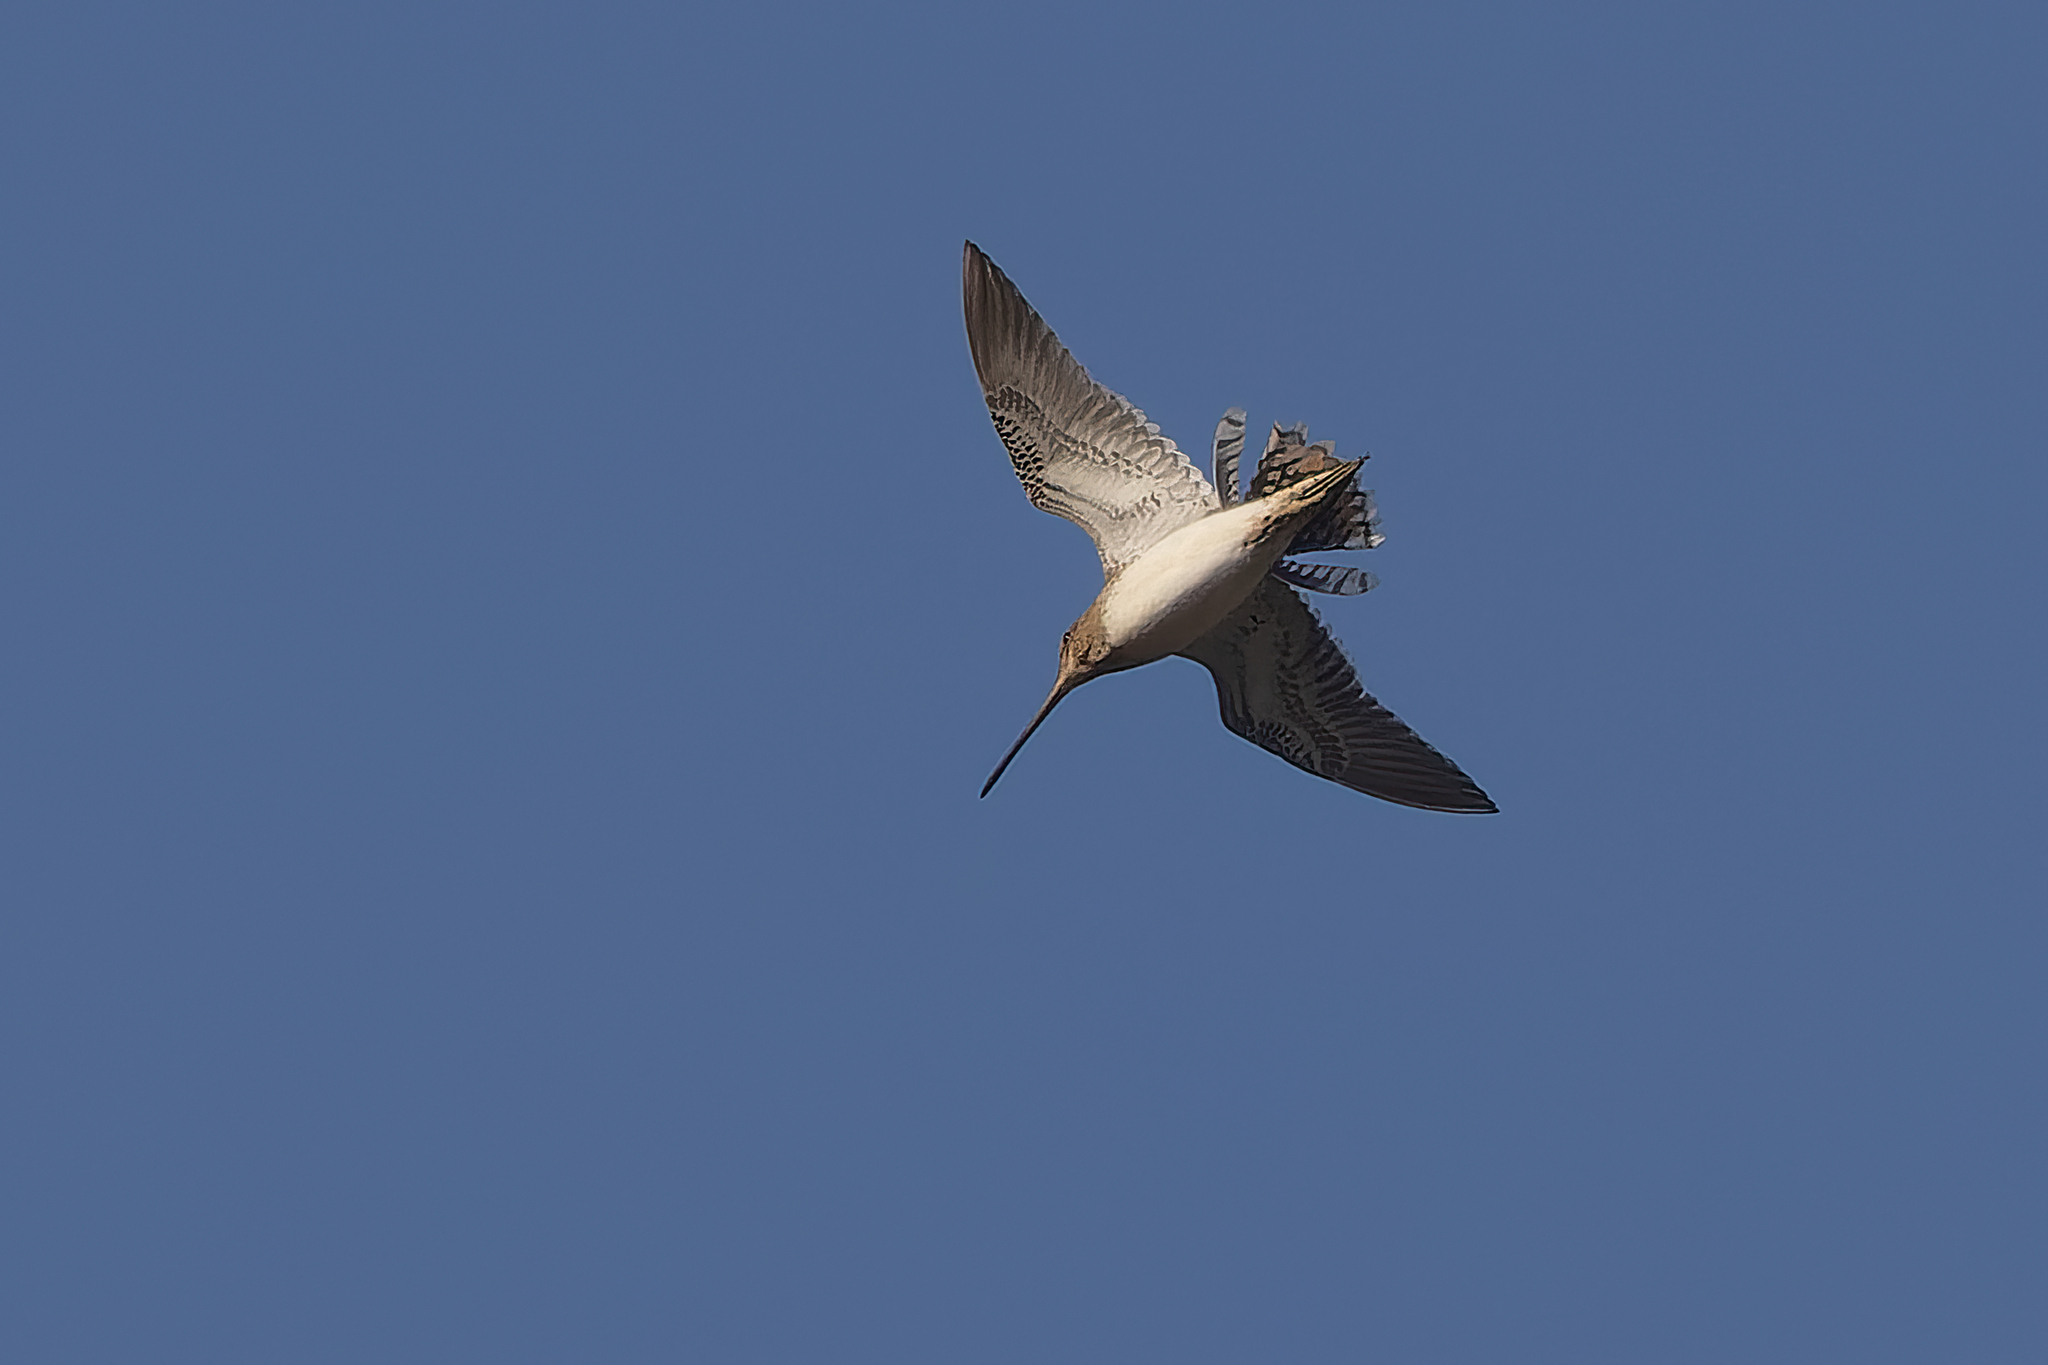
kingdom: Animalia
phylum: Chordata
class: Aves
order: Charadriiformes
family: Scolopacidae
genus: Gallinago
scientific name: Gallinago gallinago
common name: Common snipe
